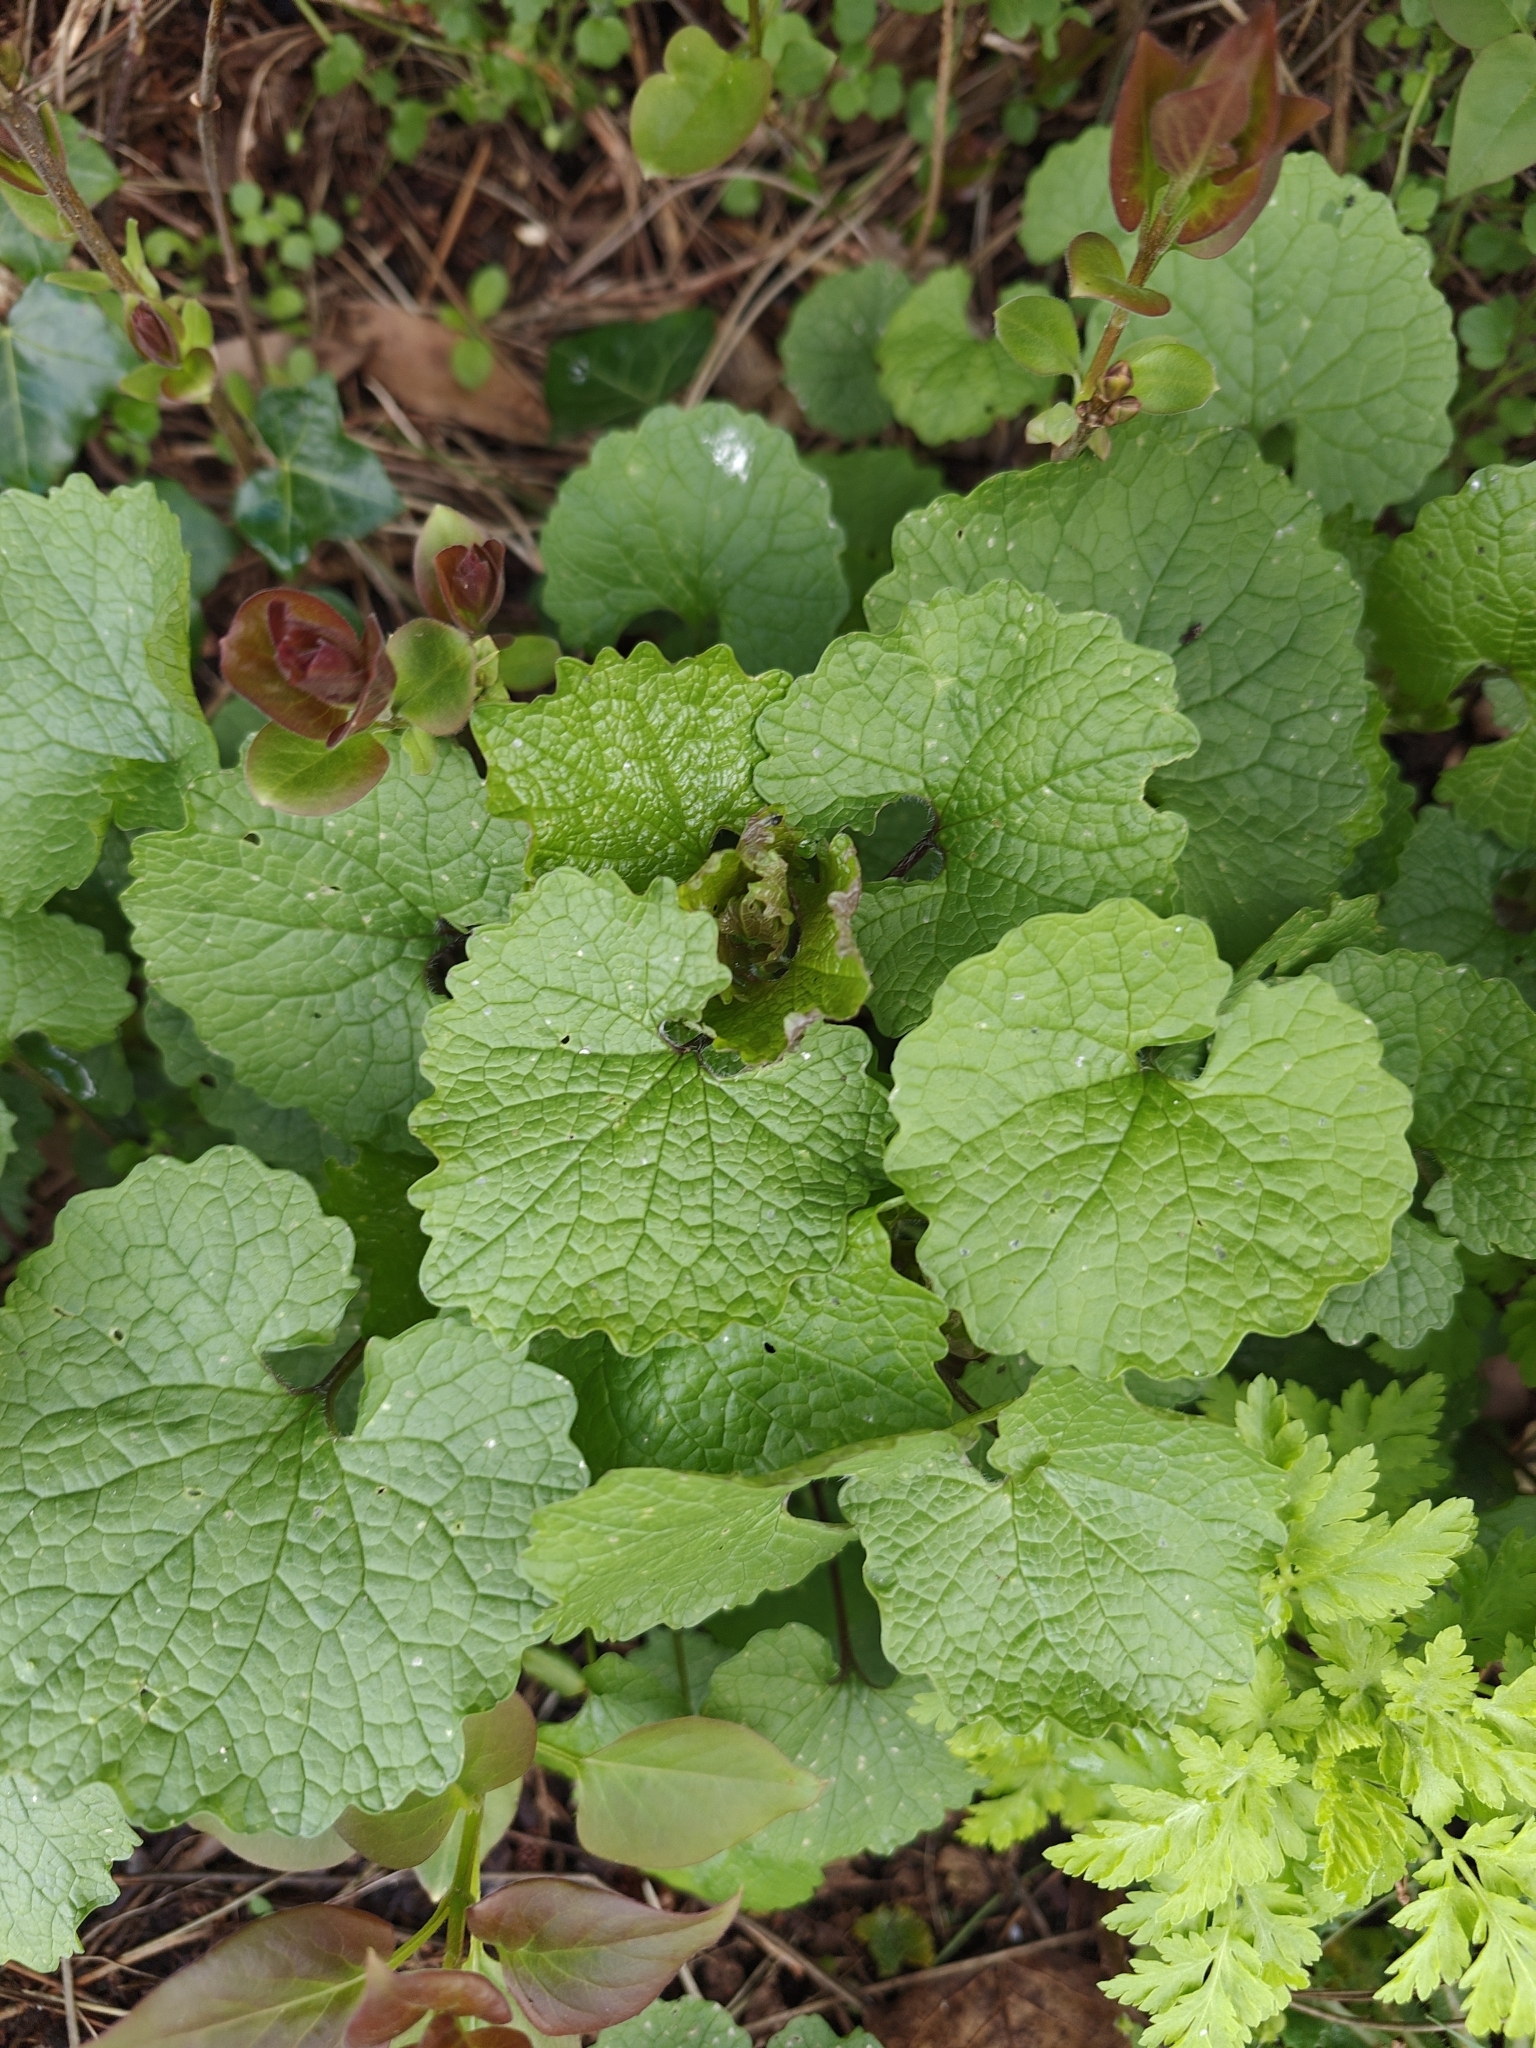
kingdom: Plantae
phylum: Tracheophyta
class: Magnoliopsida
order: Brassicales
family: Brassicaceae
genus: Alliaria
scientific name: Alliaria petiolata
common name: Garlic mustard
